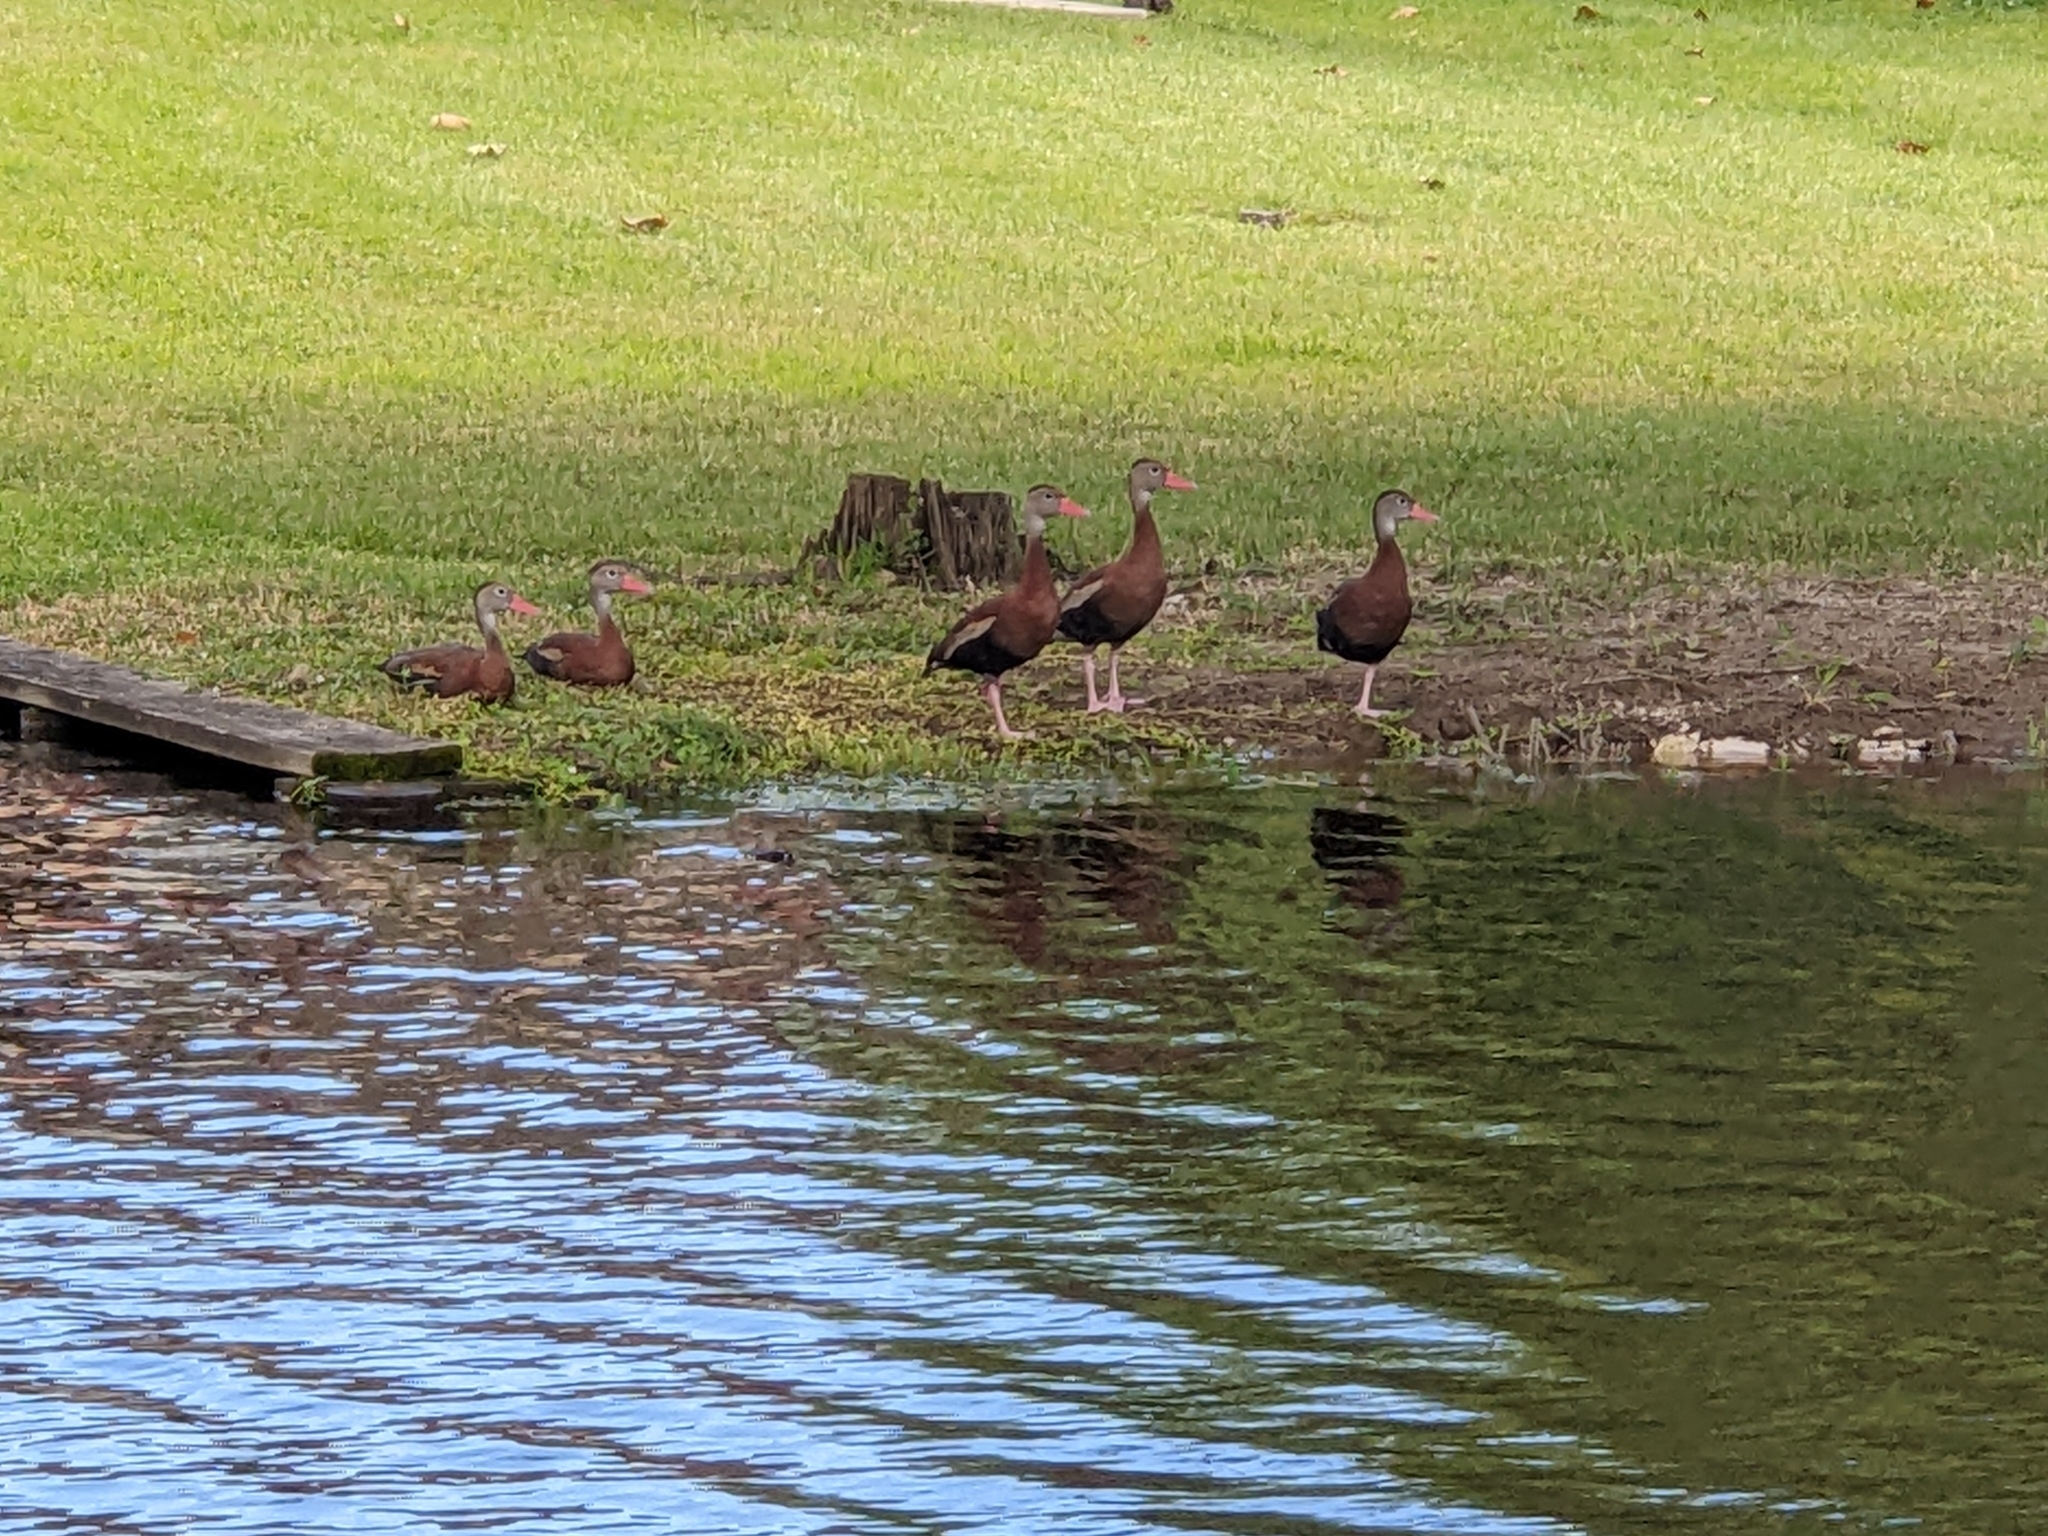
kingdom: Animalia
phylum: Chordata
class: Aves
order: Anseriformes
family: Anatidae
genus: Dendrocygna
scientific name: Dendrocygna autumnalis
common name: Black-bellied whistling duck
